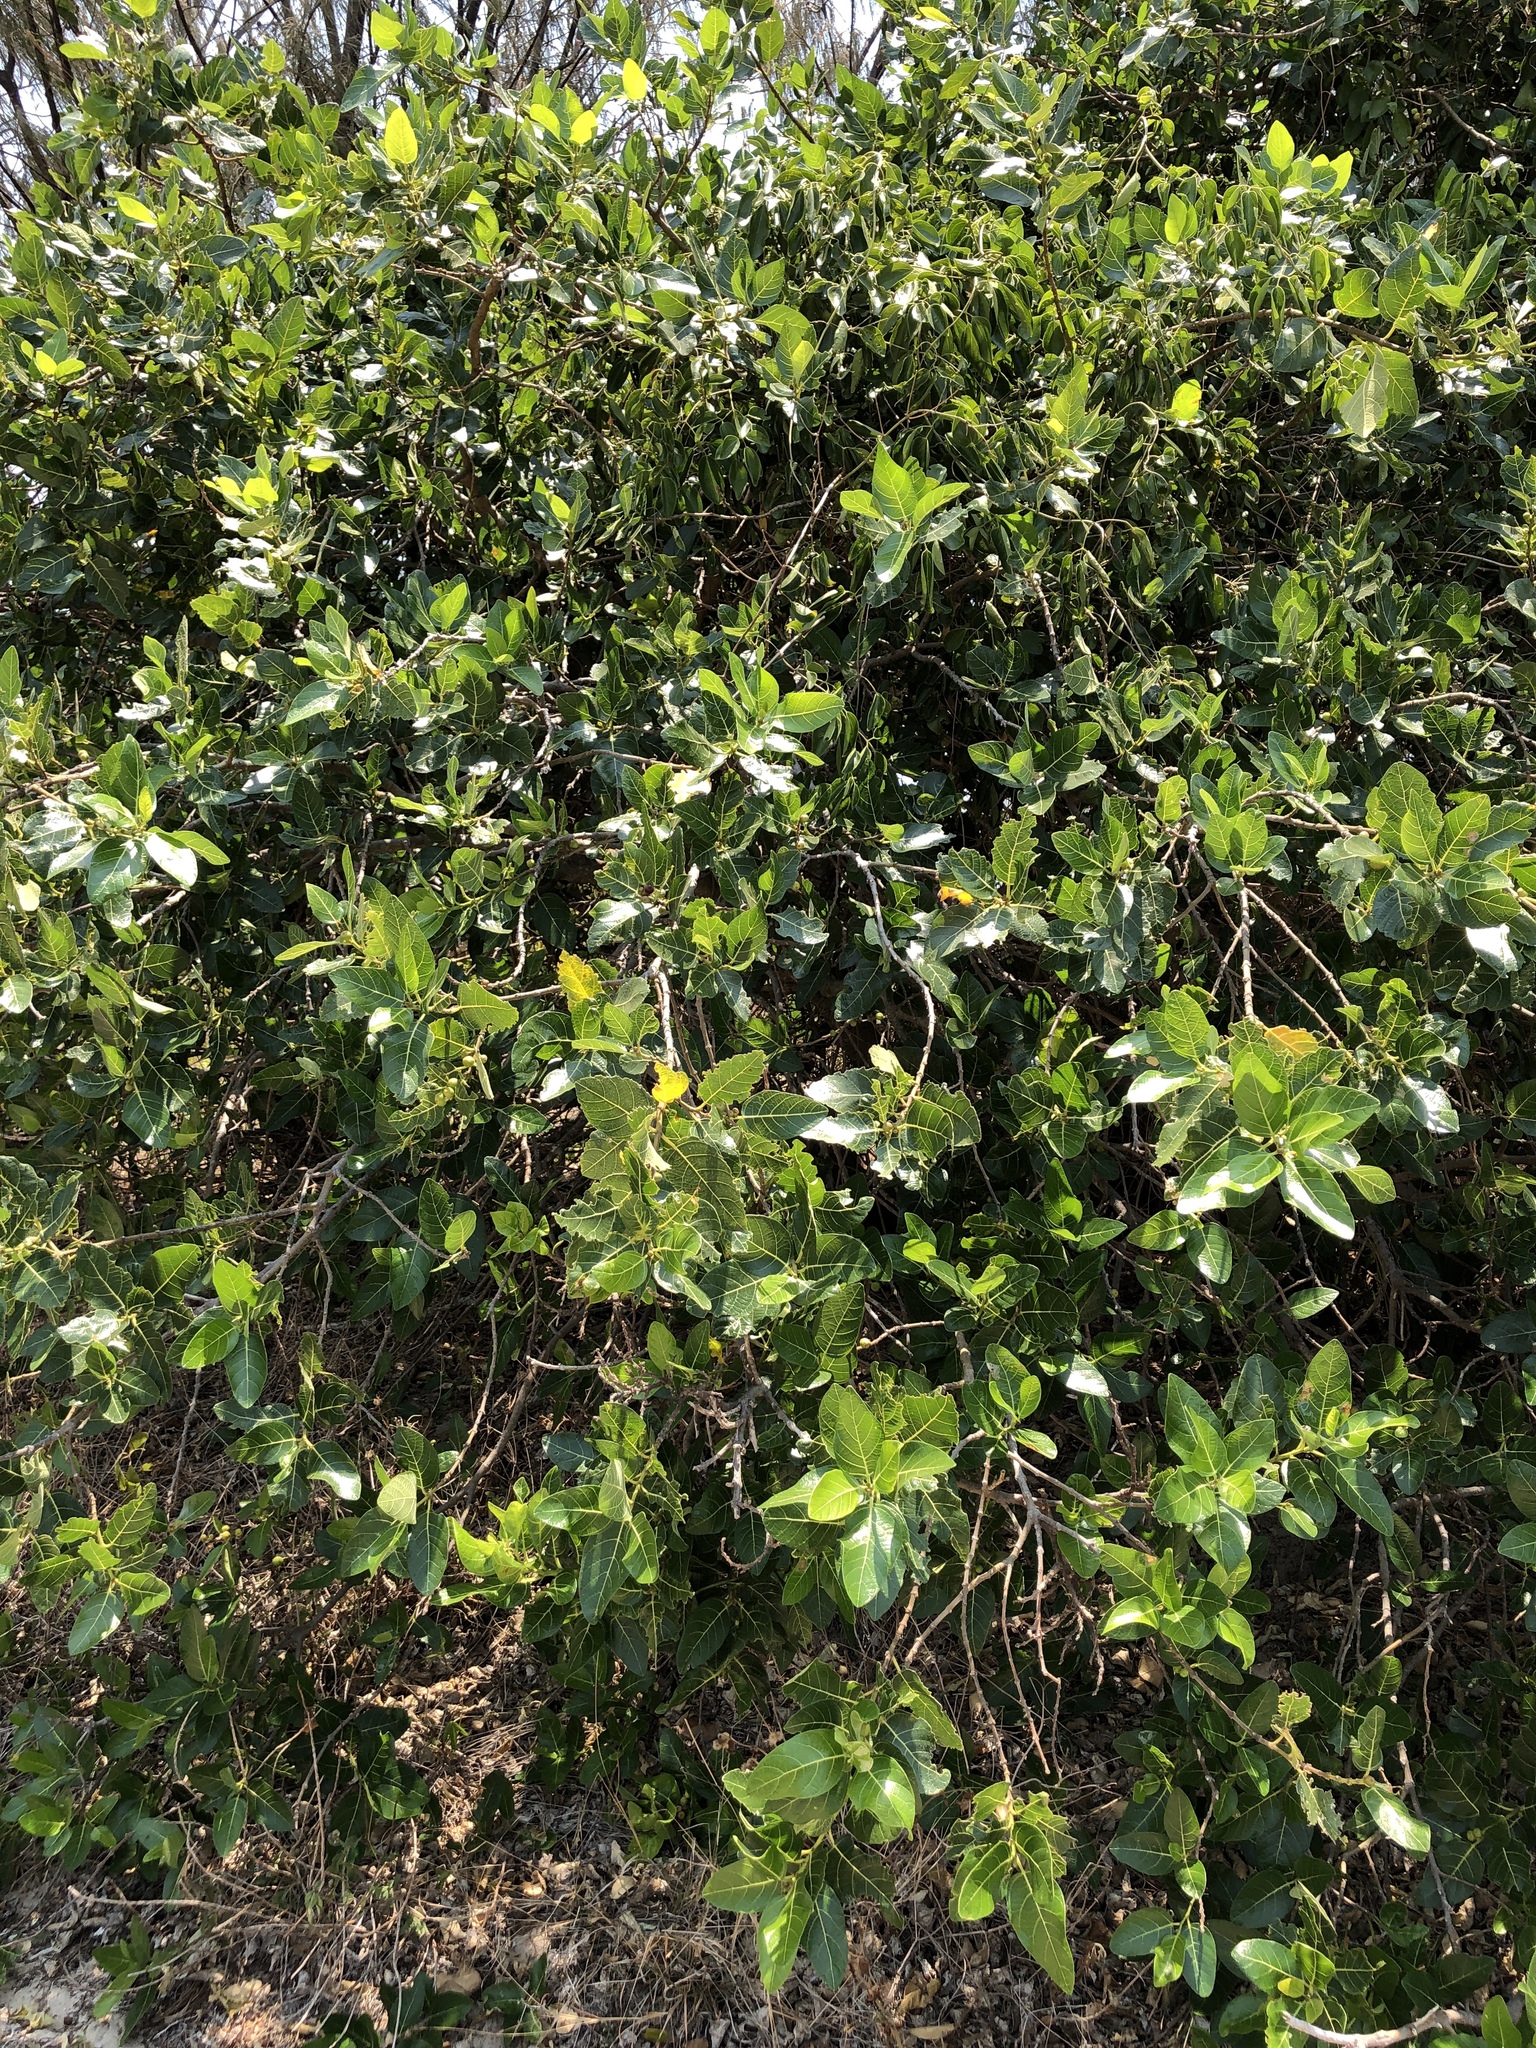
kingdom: Plantae
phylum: Tracheophyta
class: Magnoliopsida
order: Rosales
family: Moraceae
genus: Ficus
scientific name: Ficus opposita
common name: Figwood
